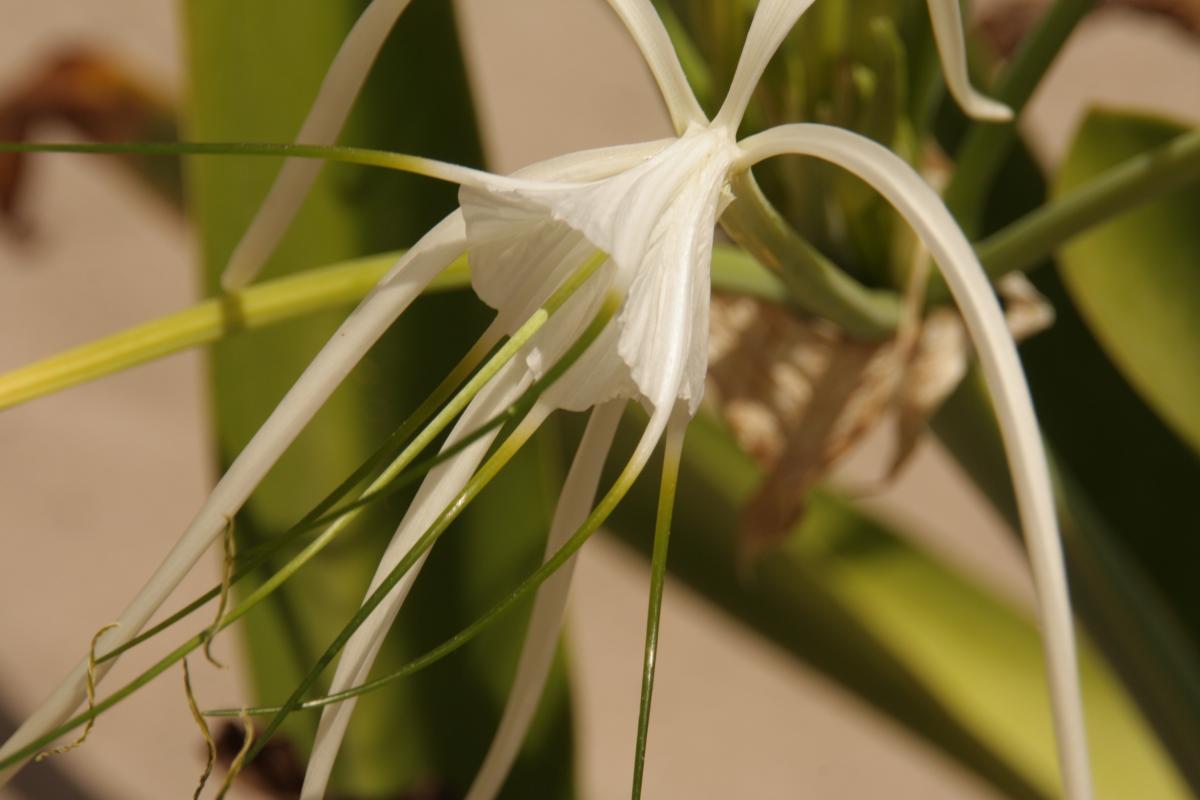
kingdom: Plantae
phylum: Tracheophyta
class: Liliopsida
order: Asparagales
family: Amaryllidaceae
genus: Hymenocallis
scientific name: Hymenocallis littoralis
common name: Beach spiderlily
